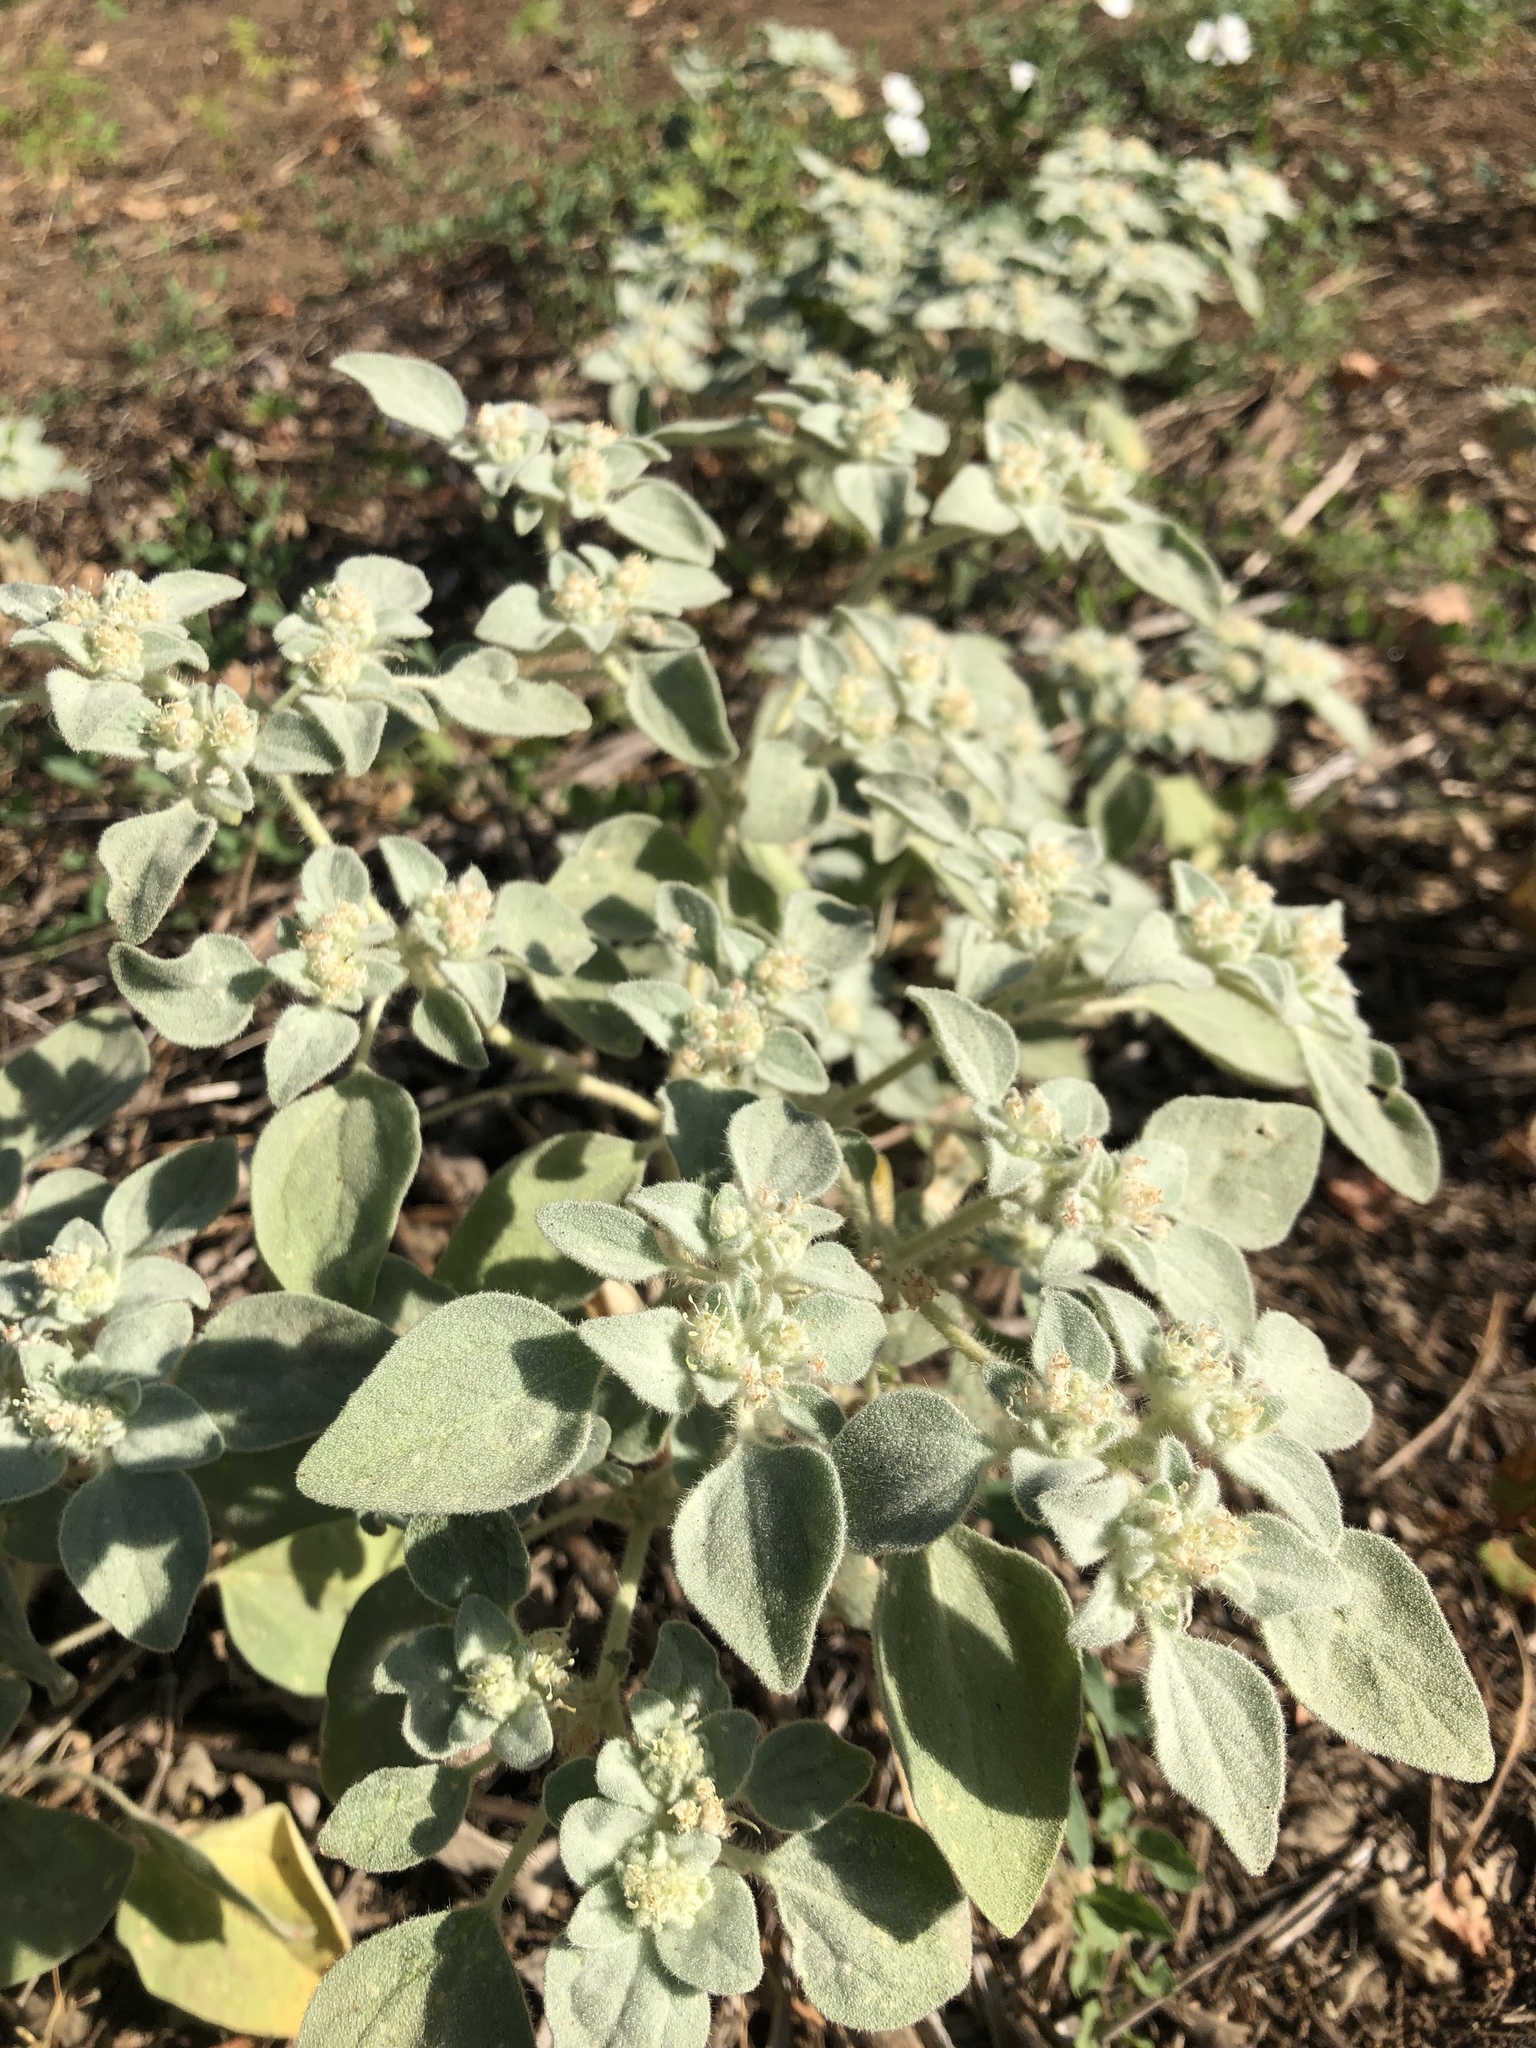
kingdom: Plantae
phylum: Tracheophyta
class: Magnoliopsida
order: Malpighiales
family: Euphorbiaceae
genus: Croton
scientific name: Croton setiger
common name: Dove weed
